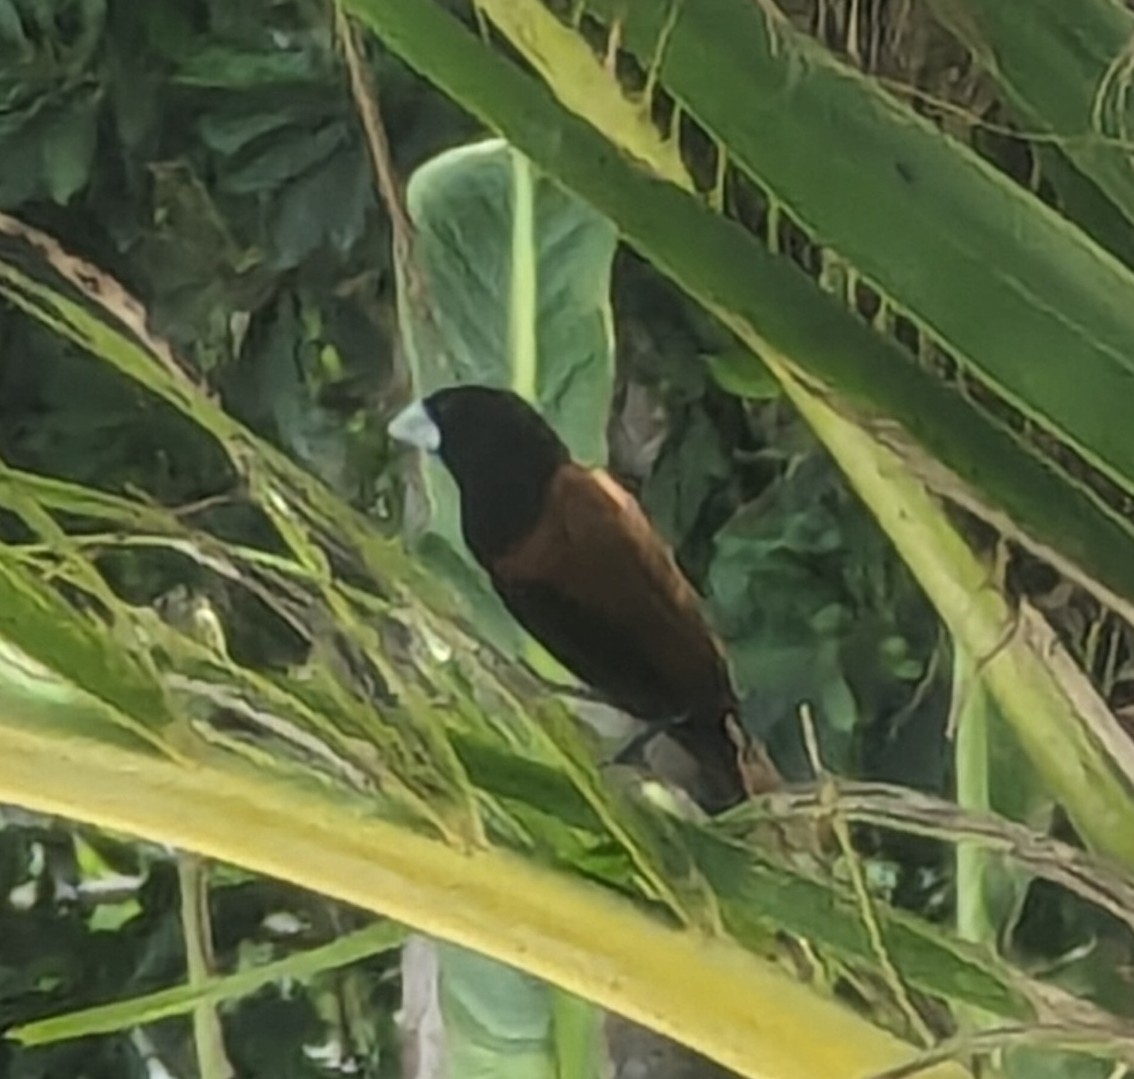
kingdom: Animalia
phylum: Chordata
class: Aves
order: Passeriformes
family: Estrildidae
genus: Lonchura
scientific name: Lonchura atricapilla
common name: Chestnut munia
